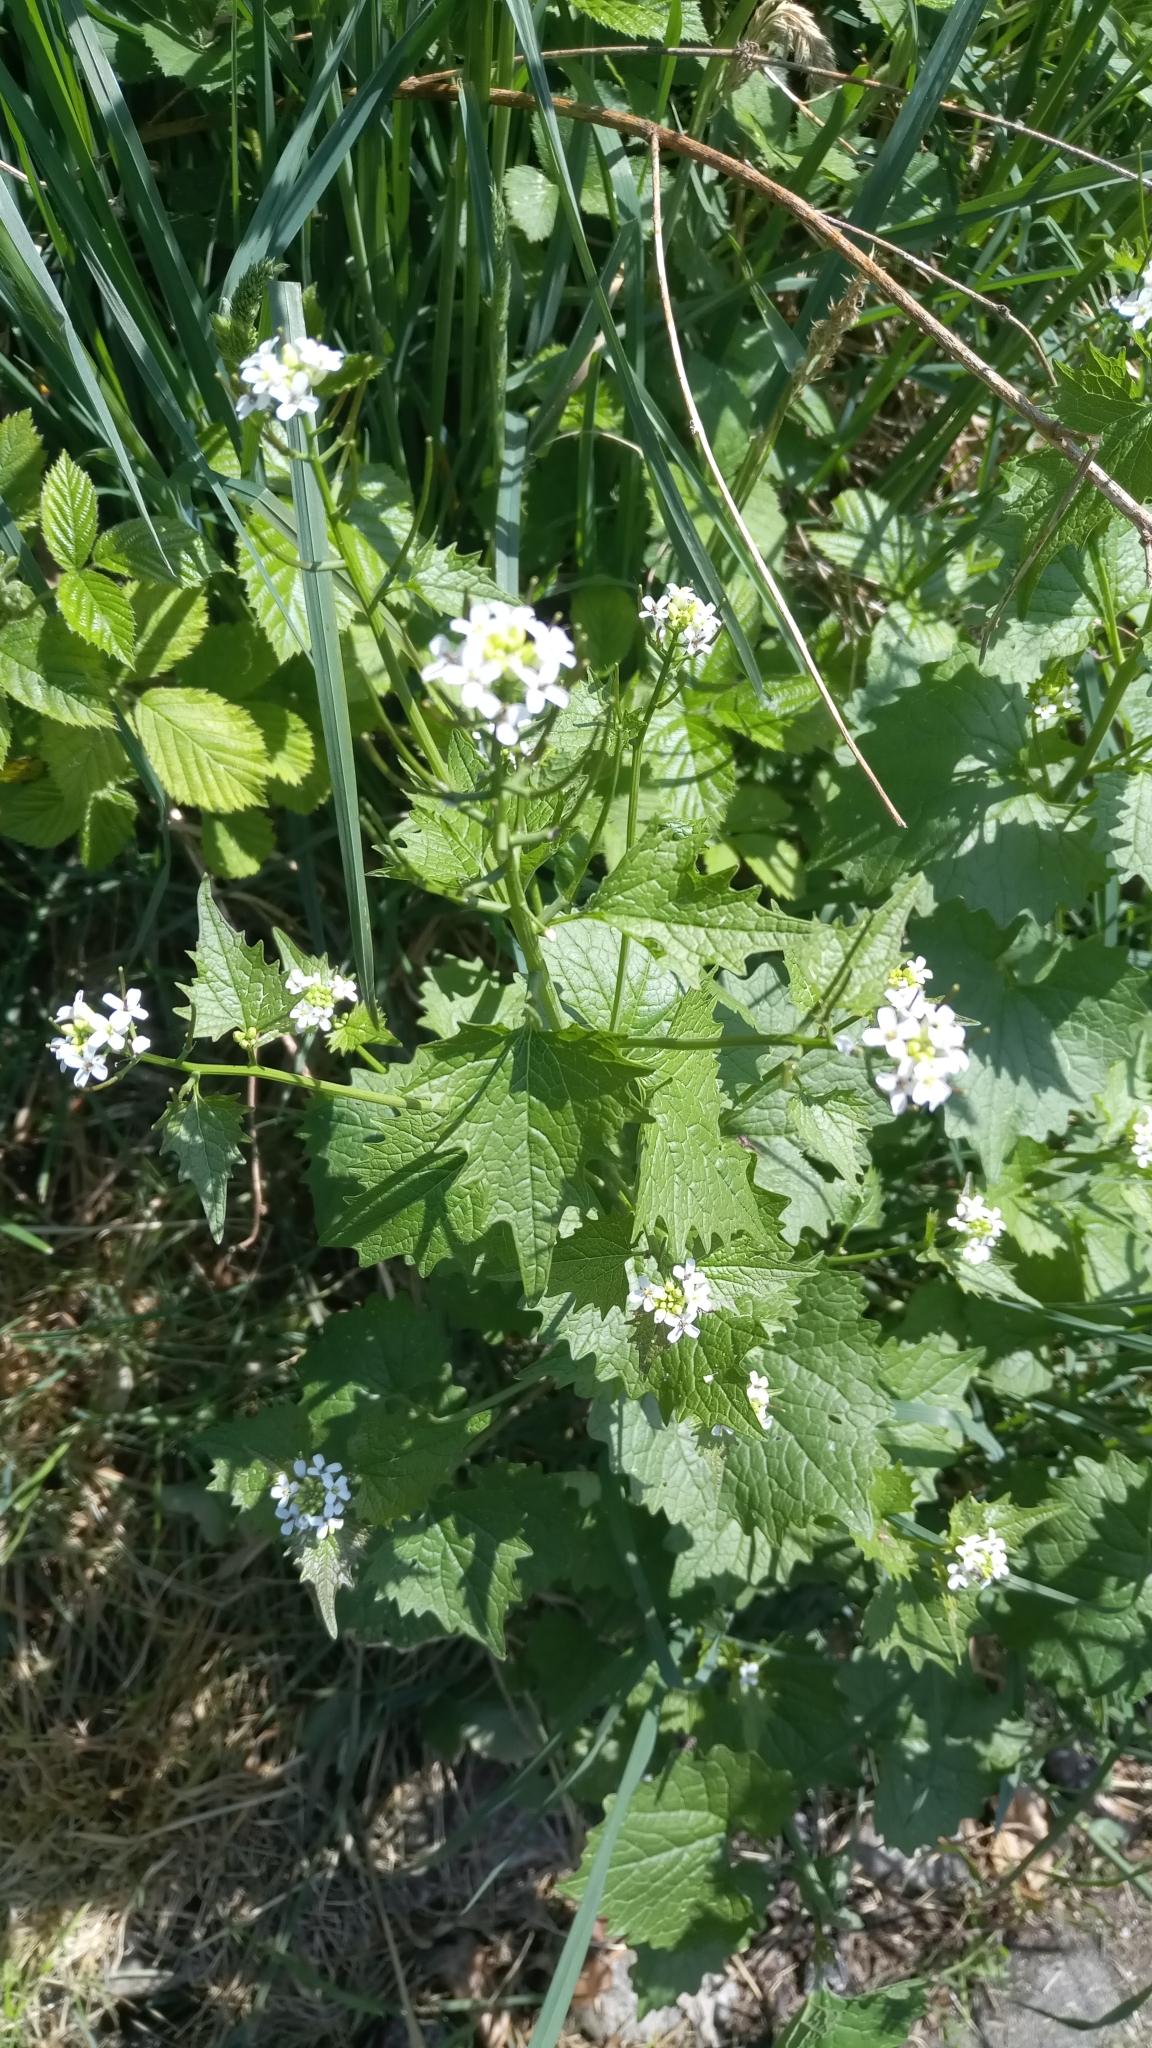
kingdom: Plantae
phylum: Tracheophyta
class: Magnoliopsida
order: Brassicales
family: Brassicaceae
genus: Alliaria
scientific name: Alliaria petiolata
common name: Garlic mustard
